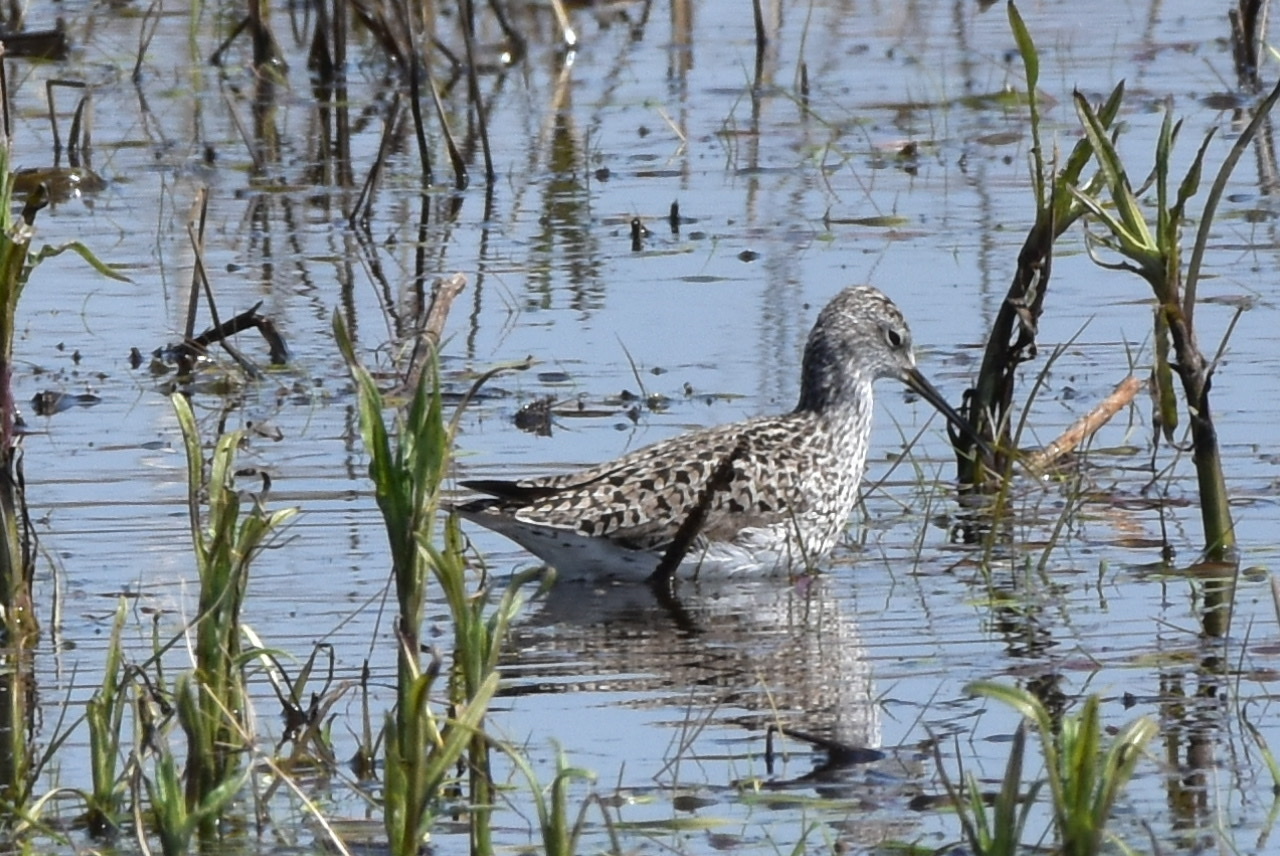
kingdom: Animalia
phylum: Chordata
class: Aves
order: Charadriiformes
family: Scolopacidae
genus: Tringa
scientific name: Tringa stagnatilis
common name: Marsh sandpiper
